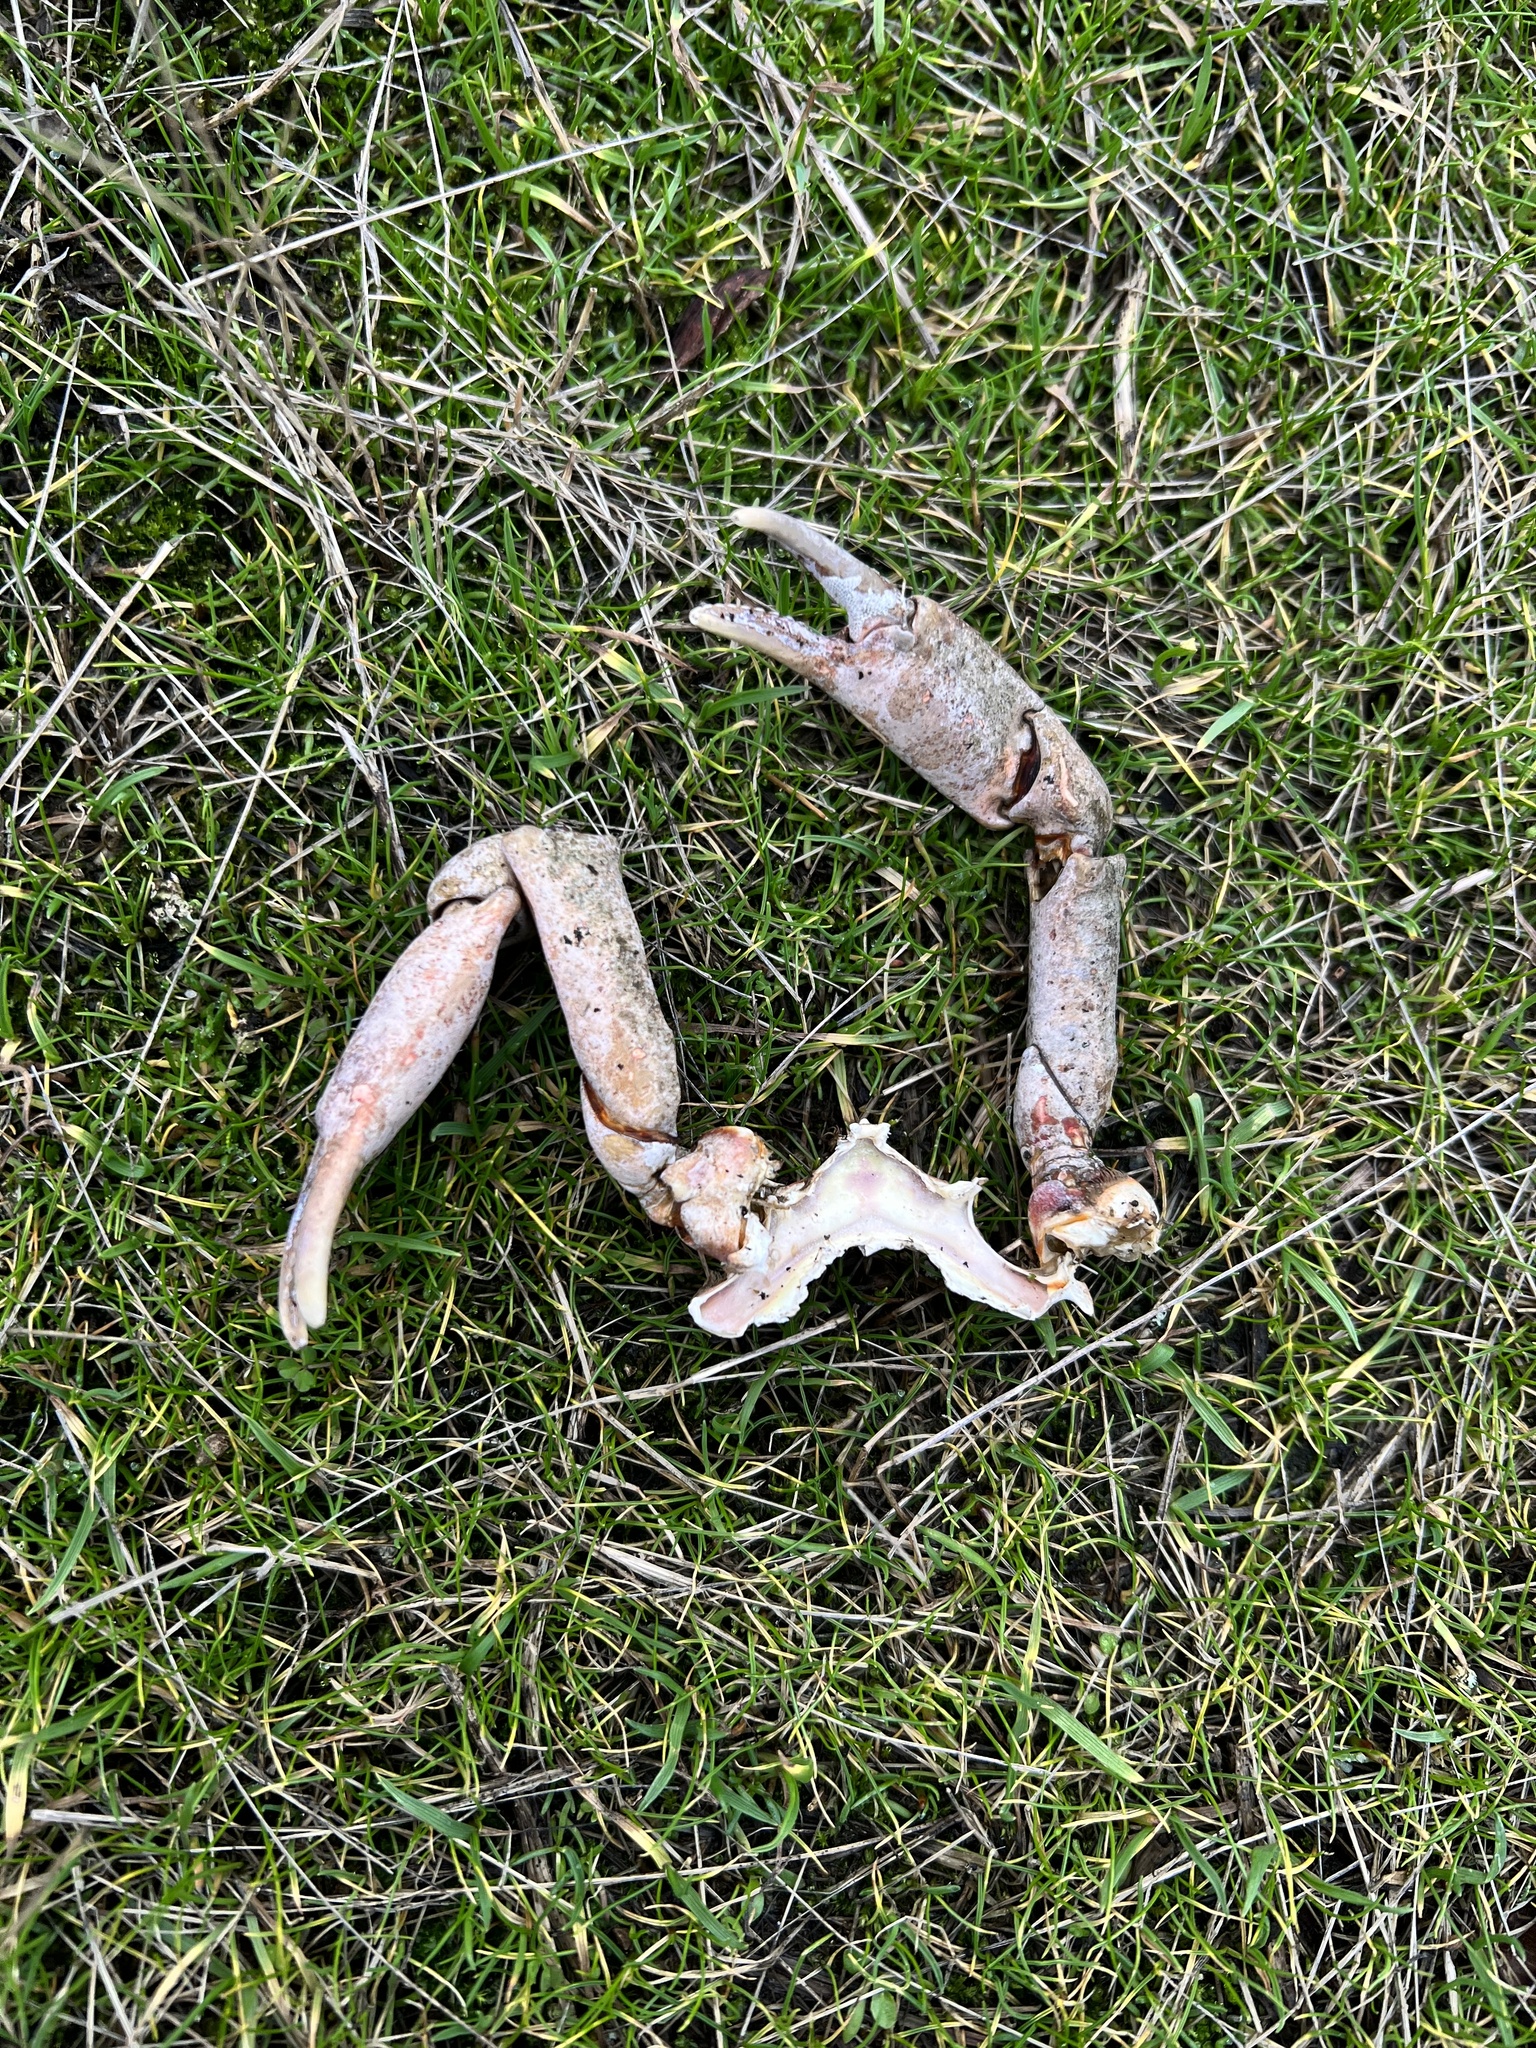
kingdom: Animalia
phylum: Arthropoda
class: Malacostraca
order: Decapoda
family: Epialtidae
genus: Pugettia
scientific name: Pugettia producta
